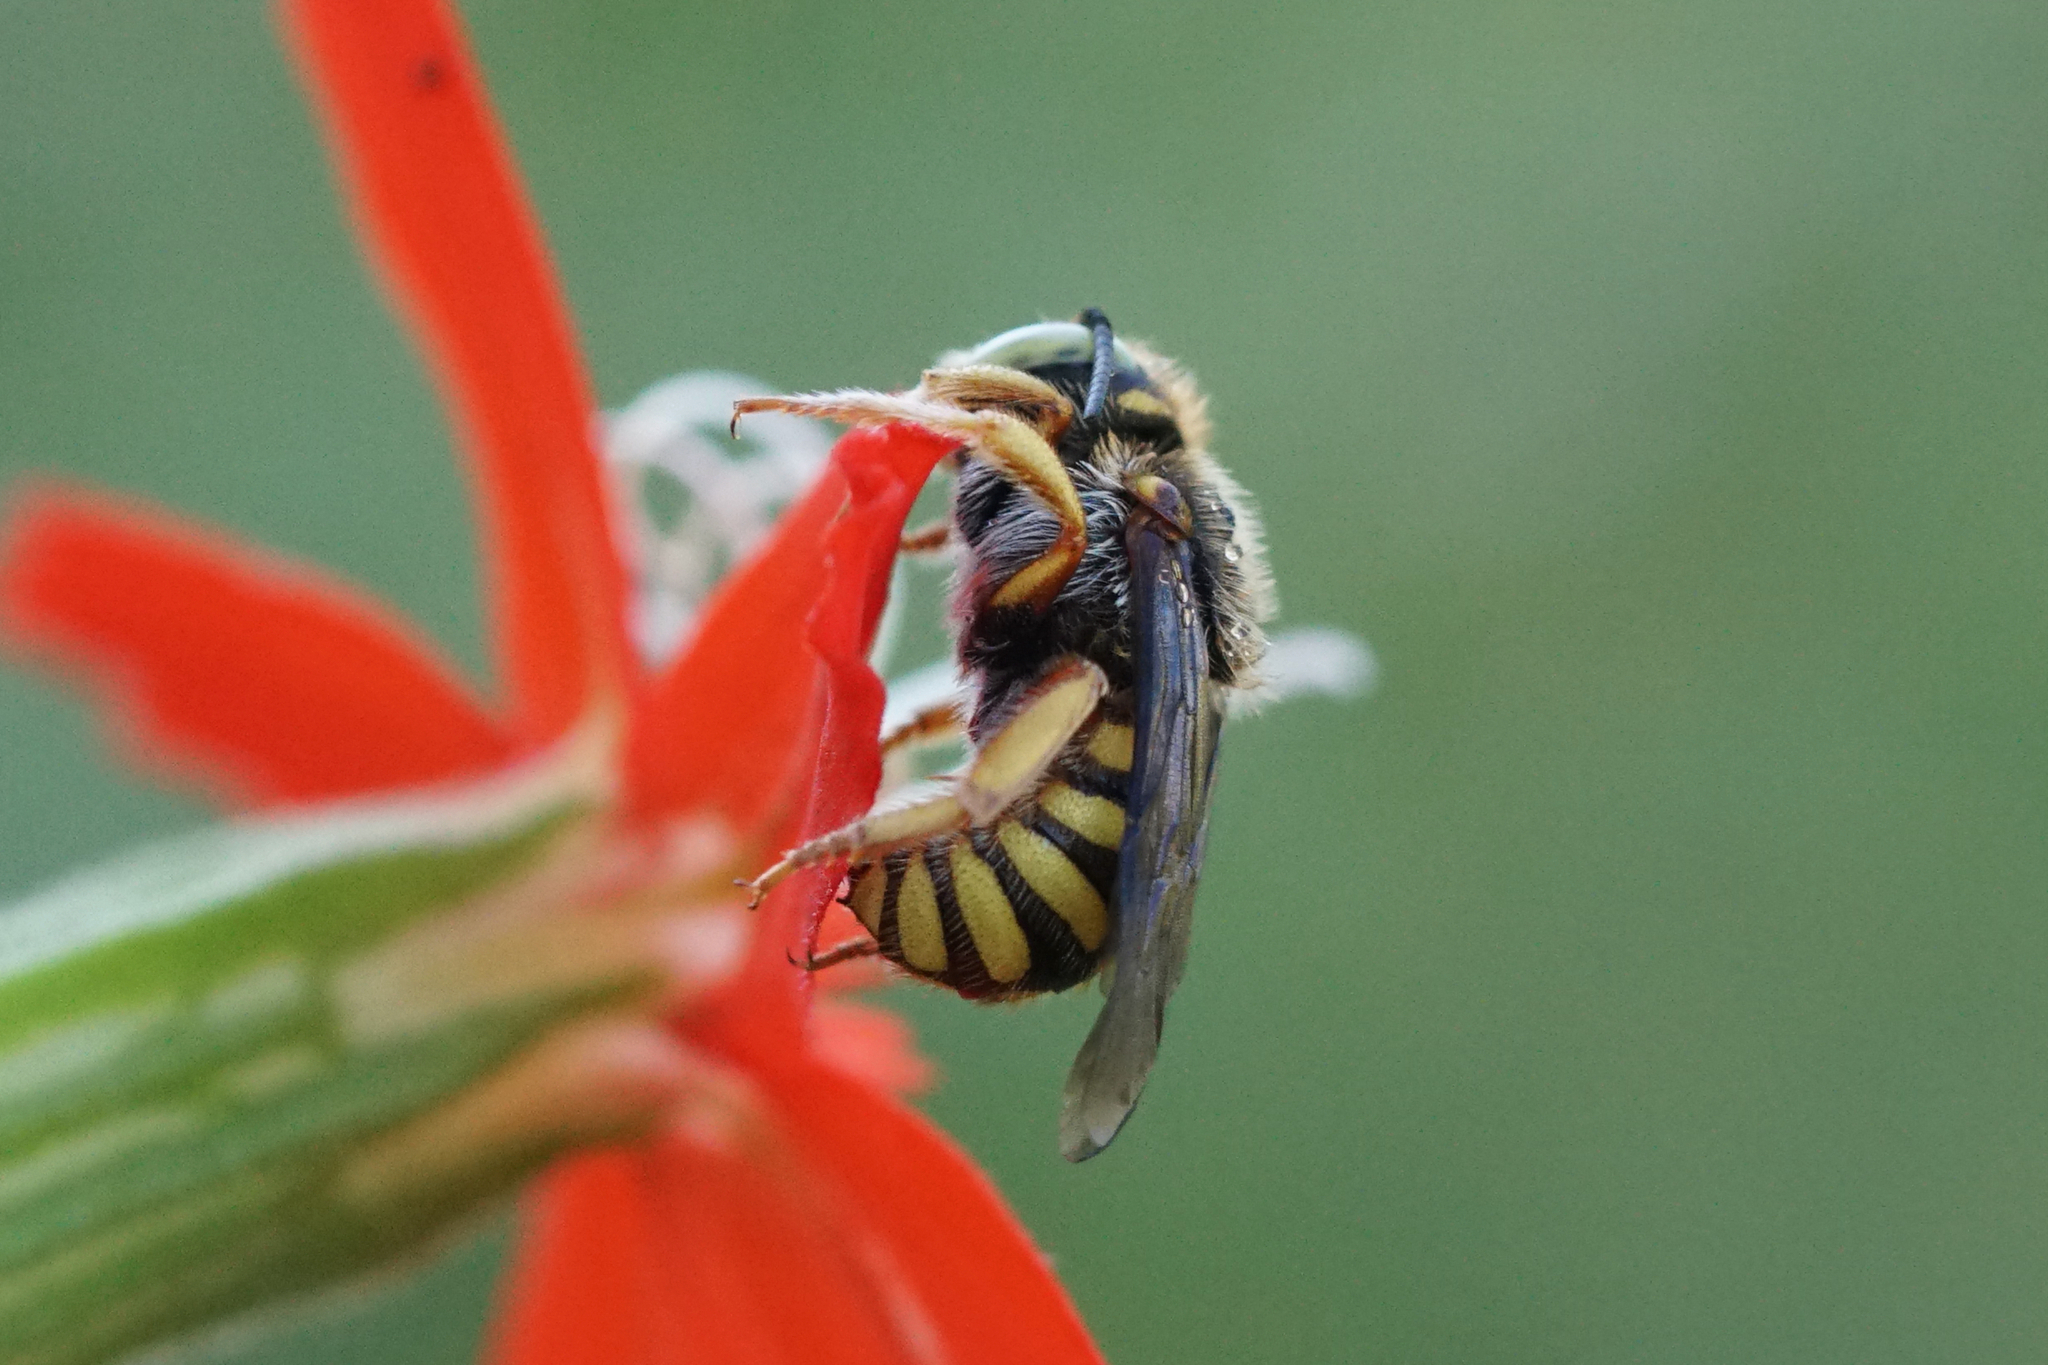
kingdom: Animalia
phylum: Arthropoda
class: Insecta
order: Hymenoptera
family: Megachilidae
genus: Anthidium
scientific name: Anthidium oblongatum
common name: Oblong wool carder bee
